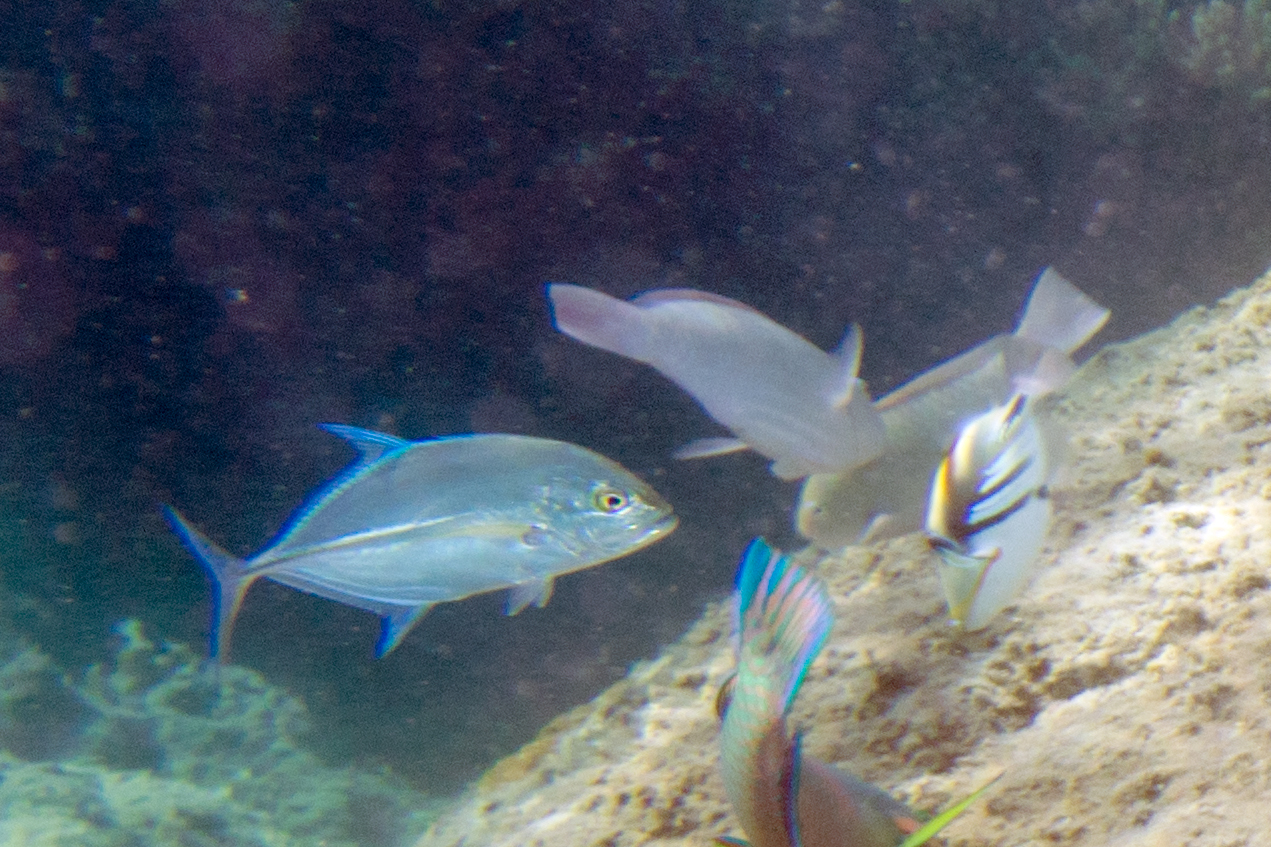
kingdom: Animalia
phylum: Chordata
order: Perciformes
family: Carangidae
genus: Caranx
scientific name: Caranx melampygus
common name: Bluefin trevally
